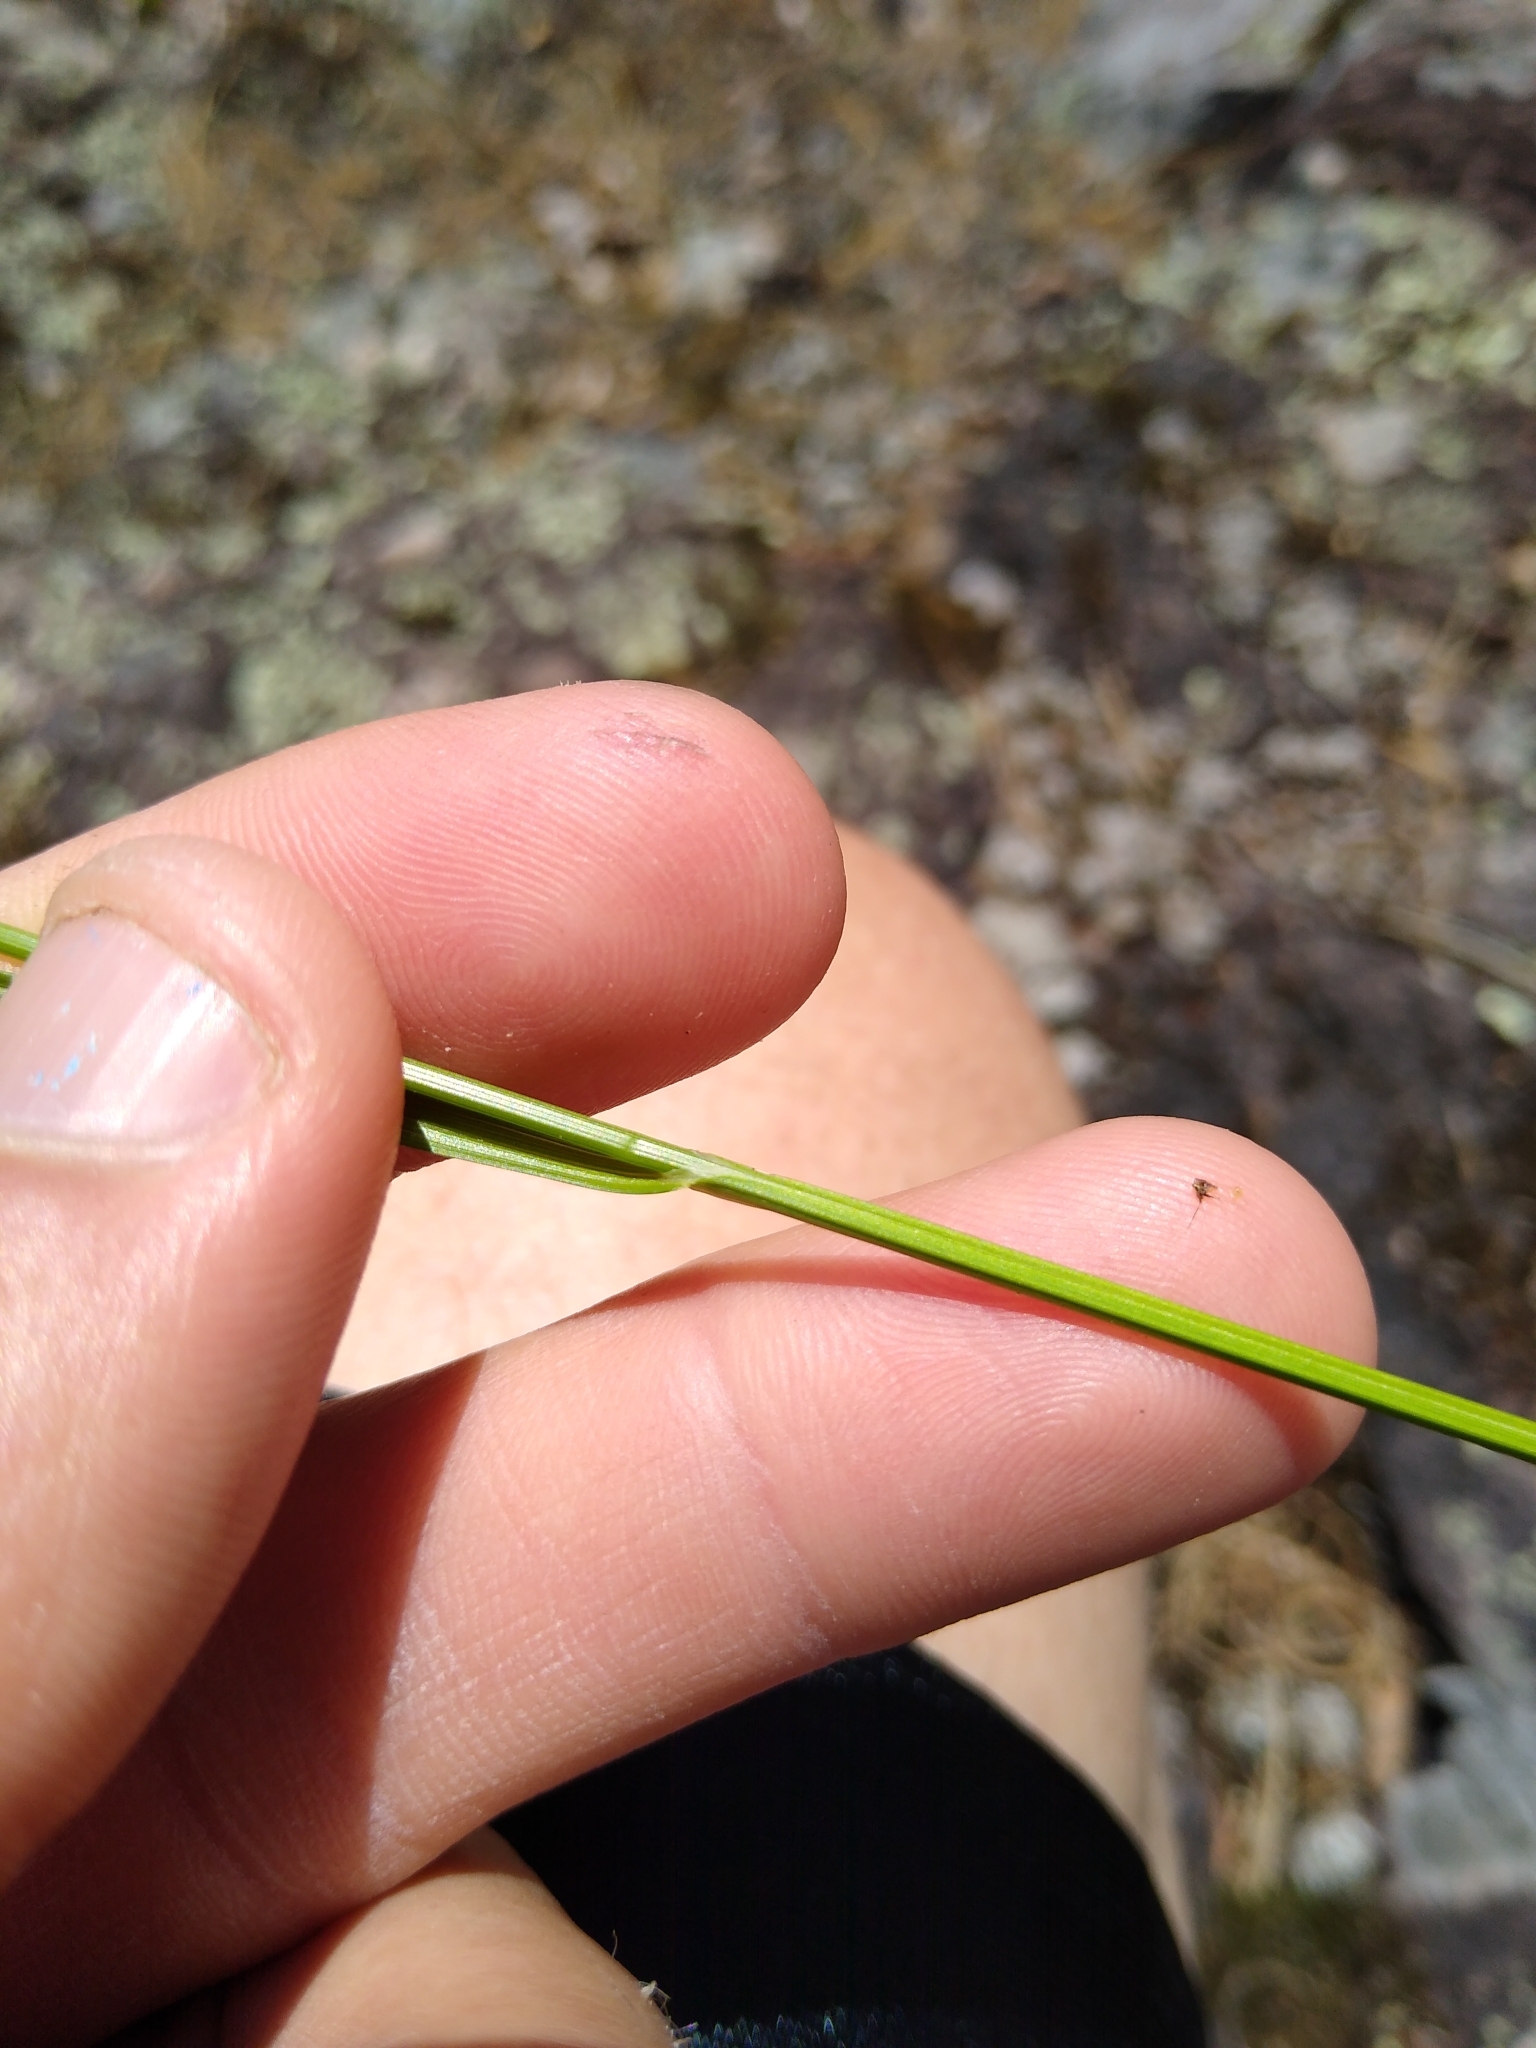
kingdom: Plantae
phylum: Tracheophyta
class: Liliopsida
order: Poales
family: Cyperaceae
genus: Carex
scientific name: Carex scoparia
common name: Broom sedge
